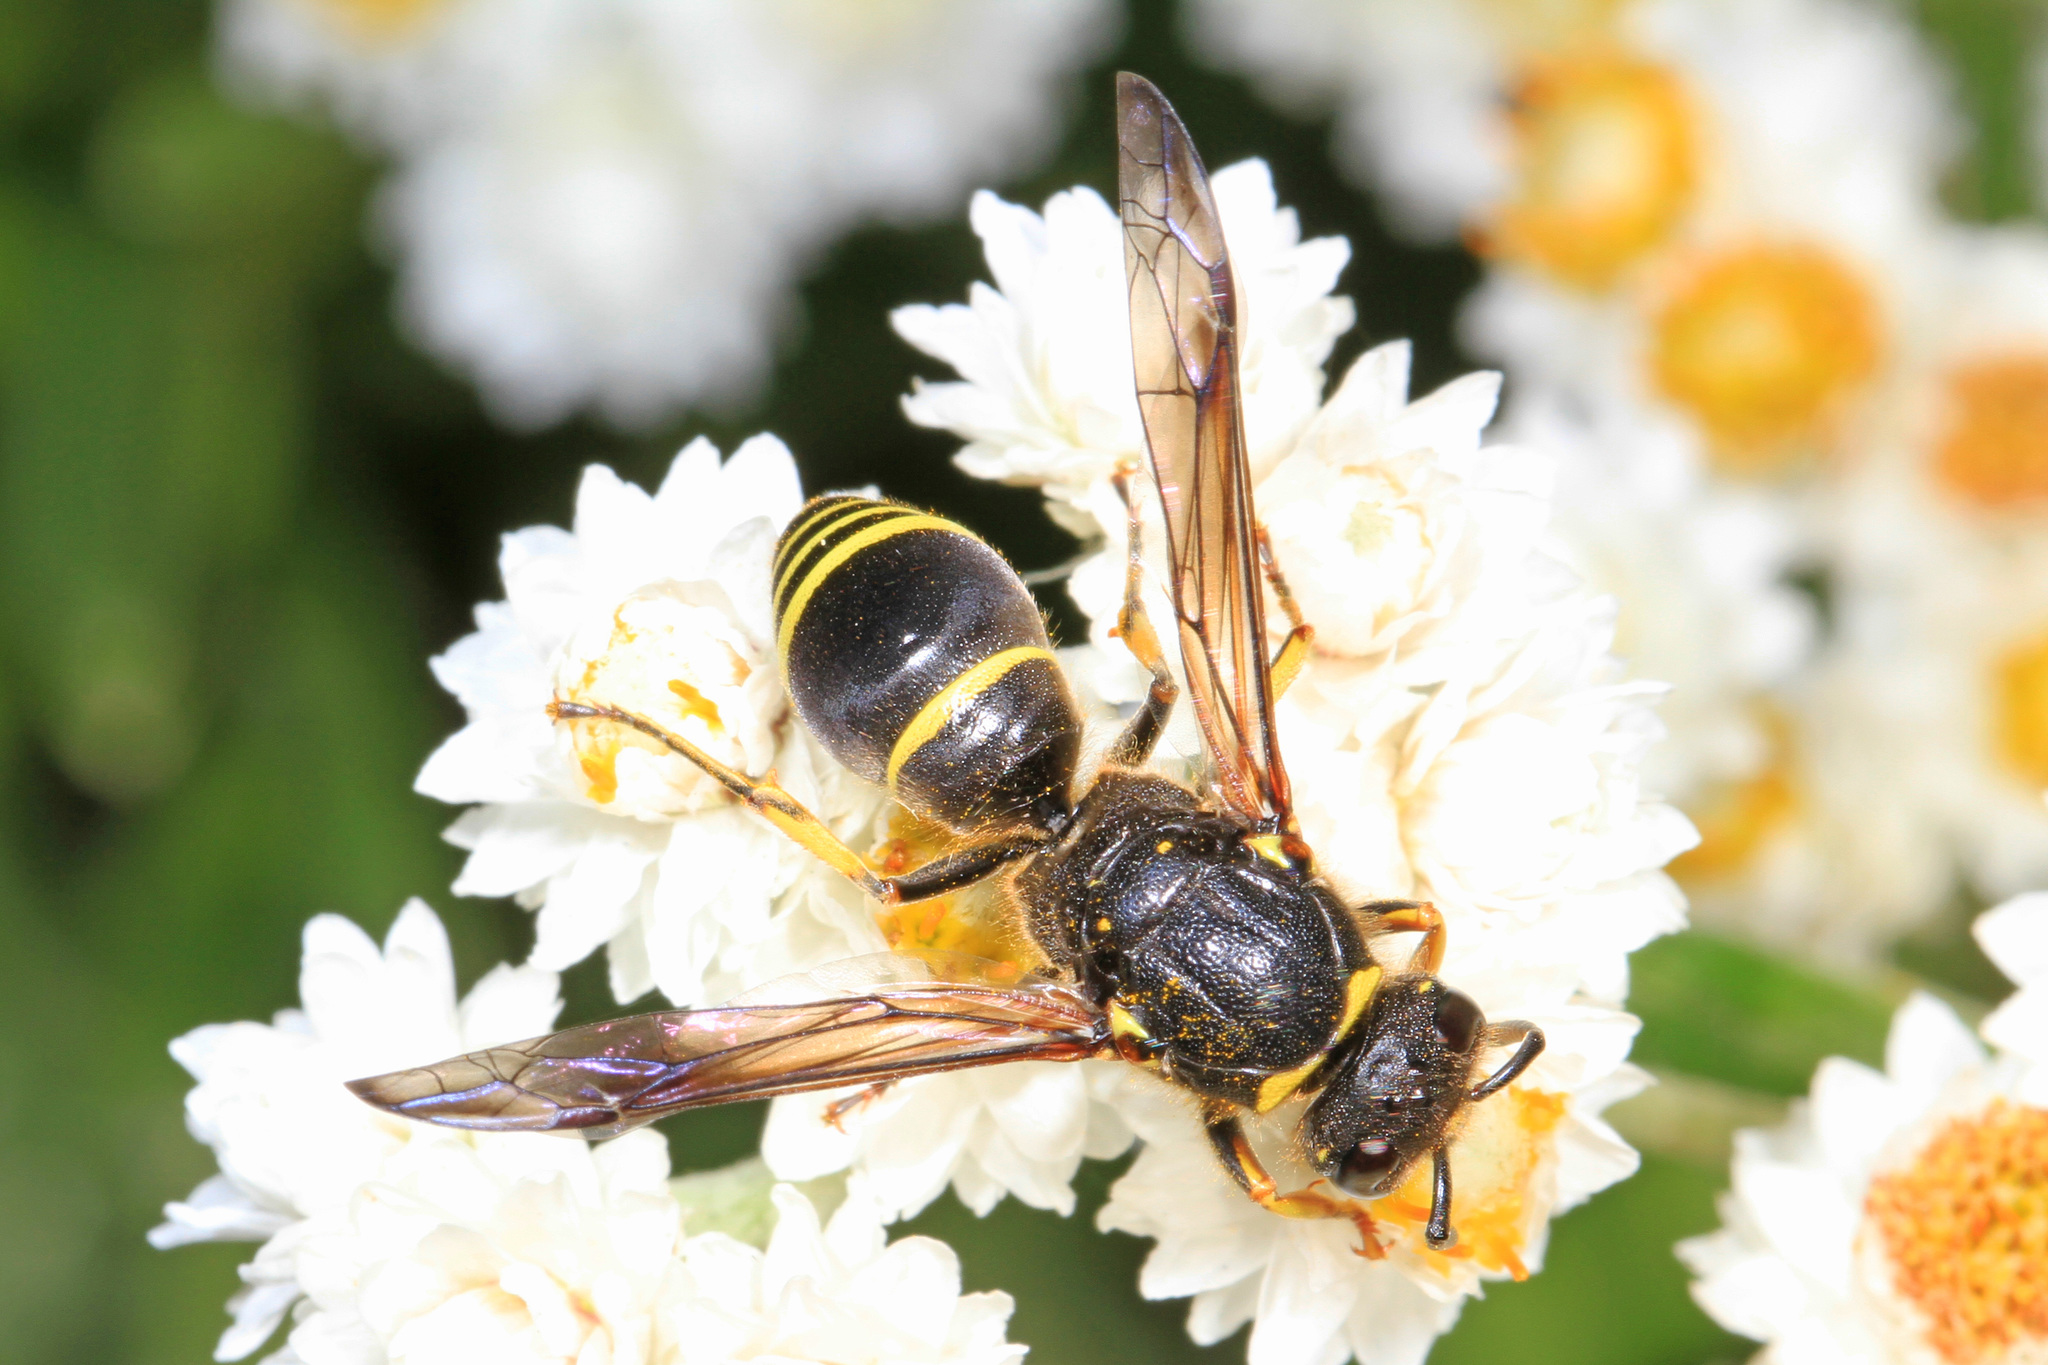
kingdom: Animalia
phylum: Arthropoda
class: Insecta
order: Hymenoptera
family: Vespidae
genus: Ancistrocerus
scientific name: Ancistrocerus
